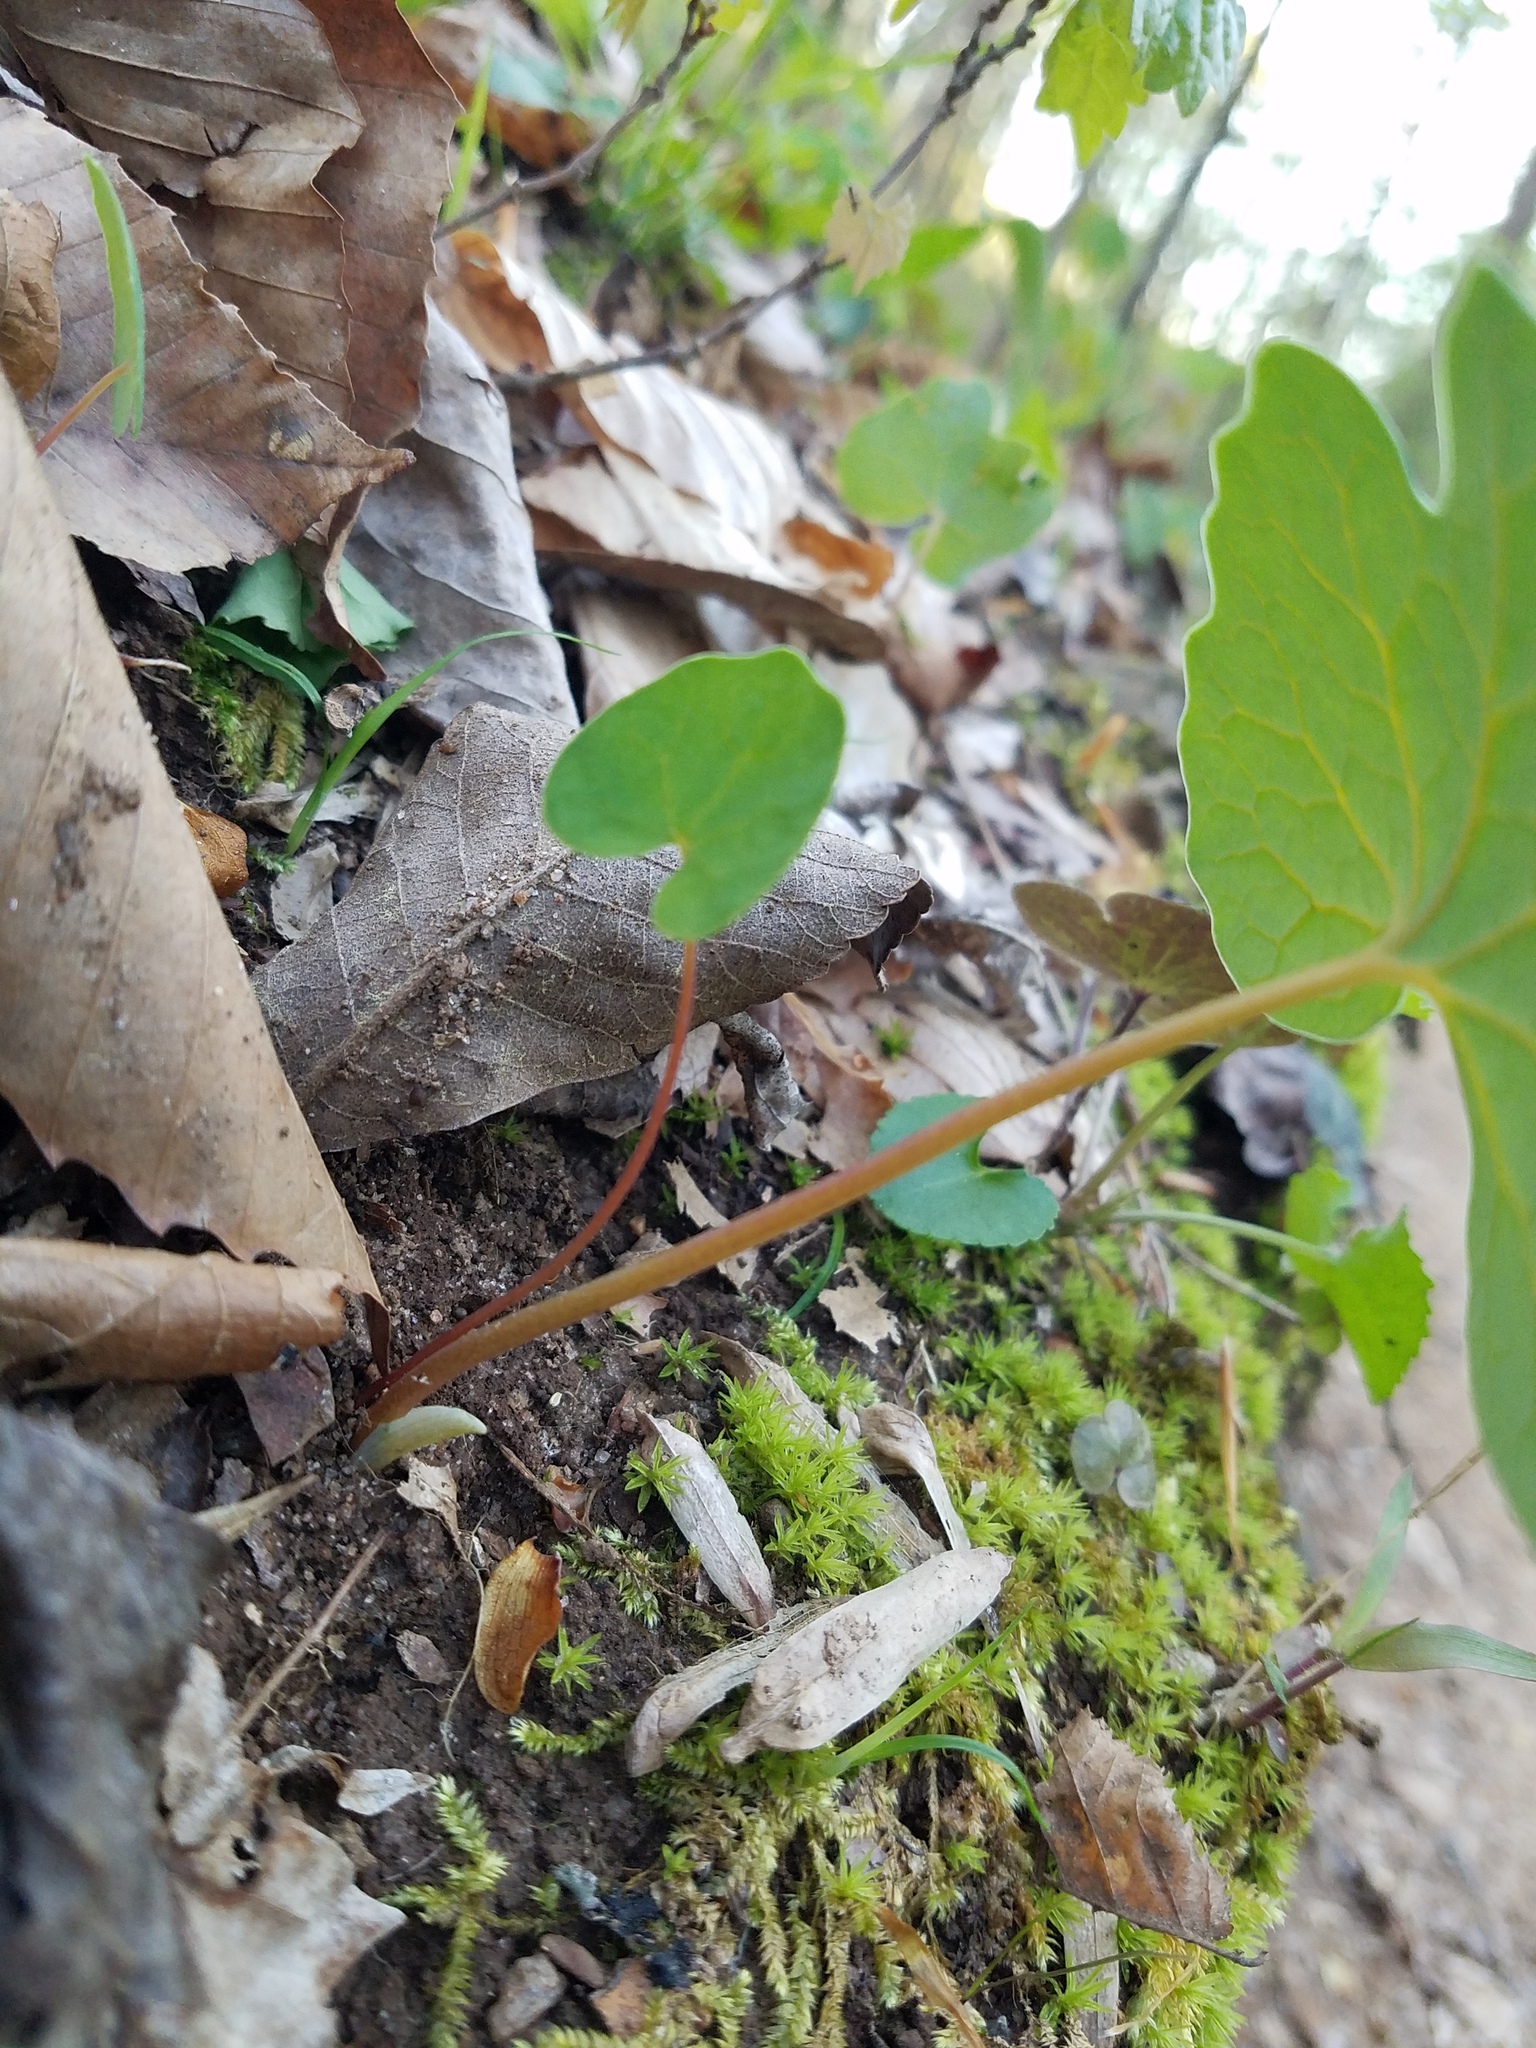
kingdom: Plantae
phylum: Tracheophyta
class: Magnoliopsida
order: Ranunculales
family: Papaveraceae
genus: Sanguinaria
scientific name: Sanguinaria canadensis
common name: Bloodroot
